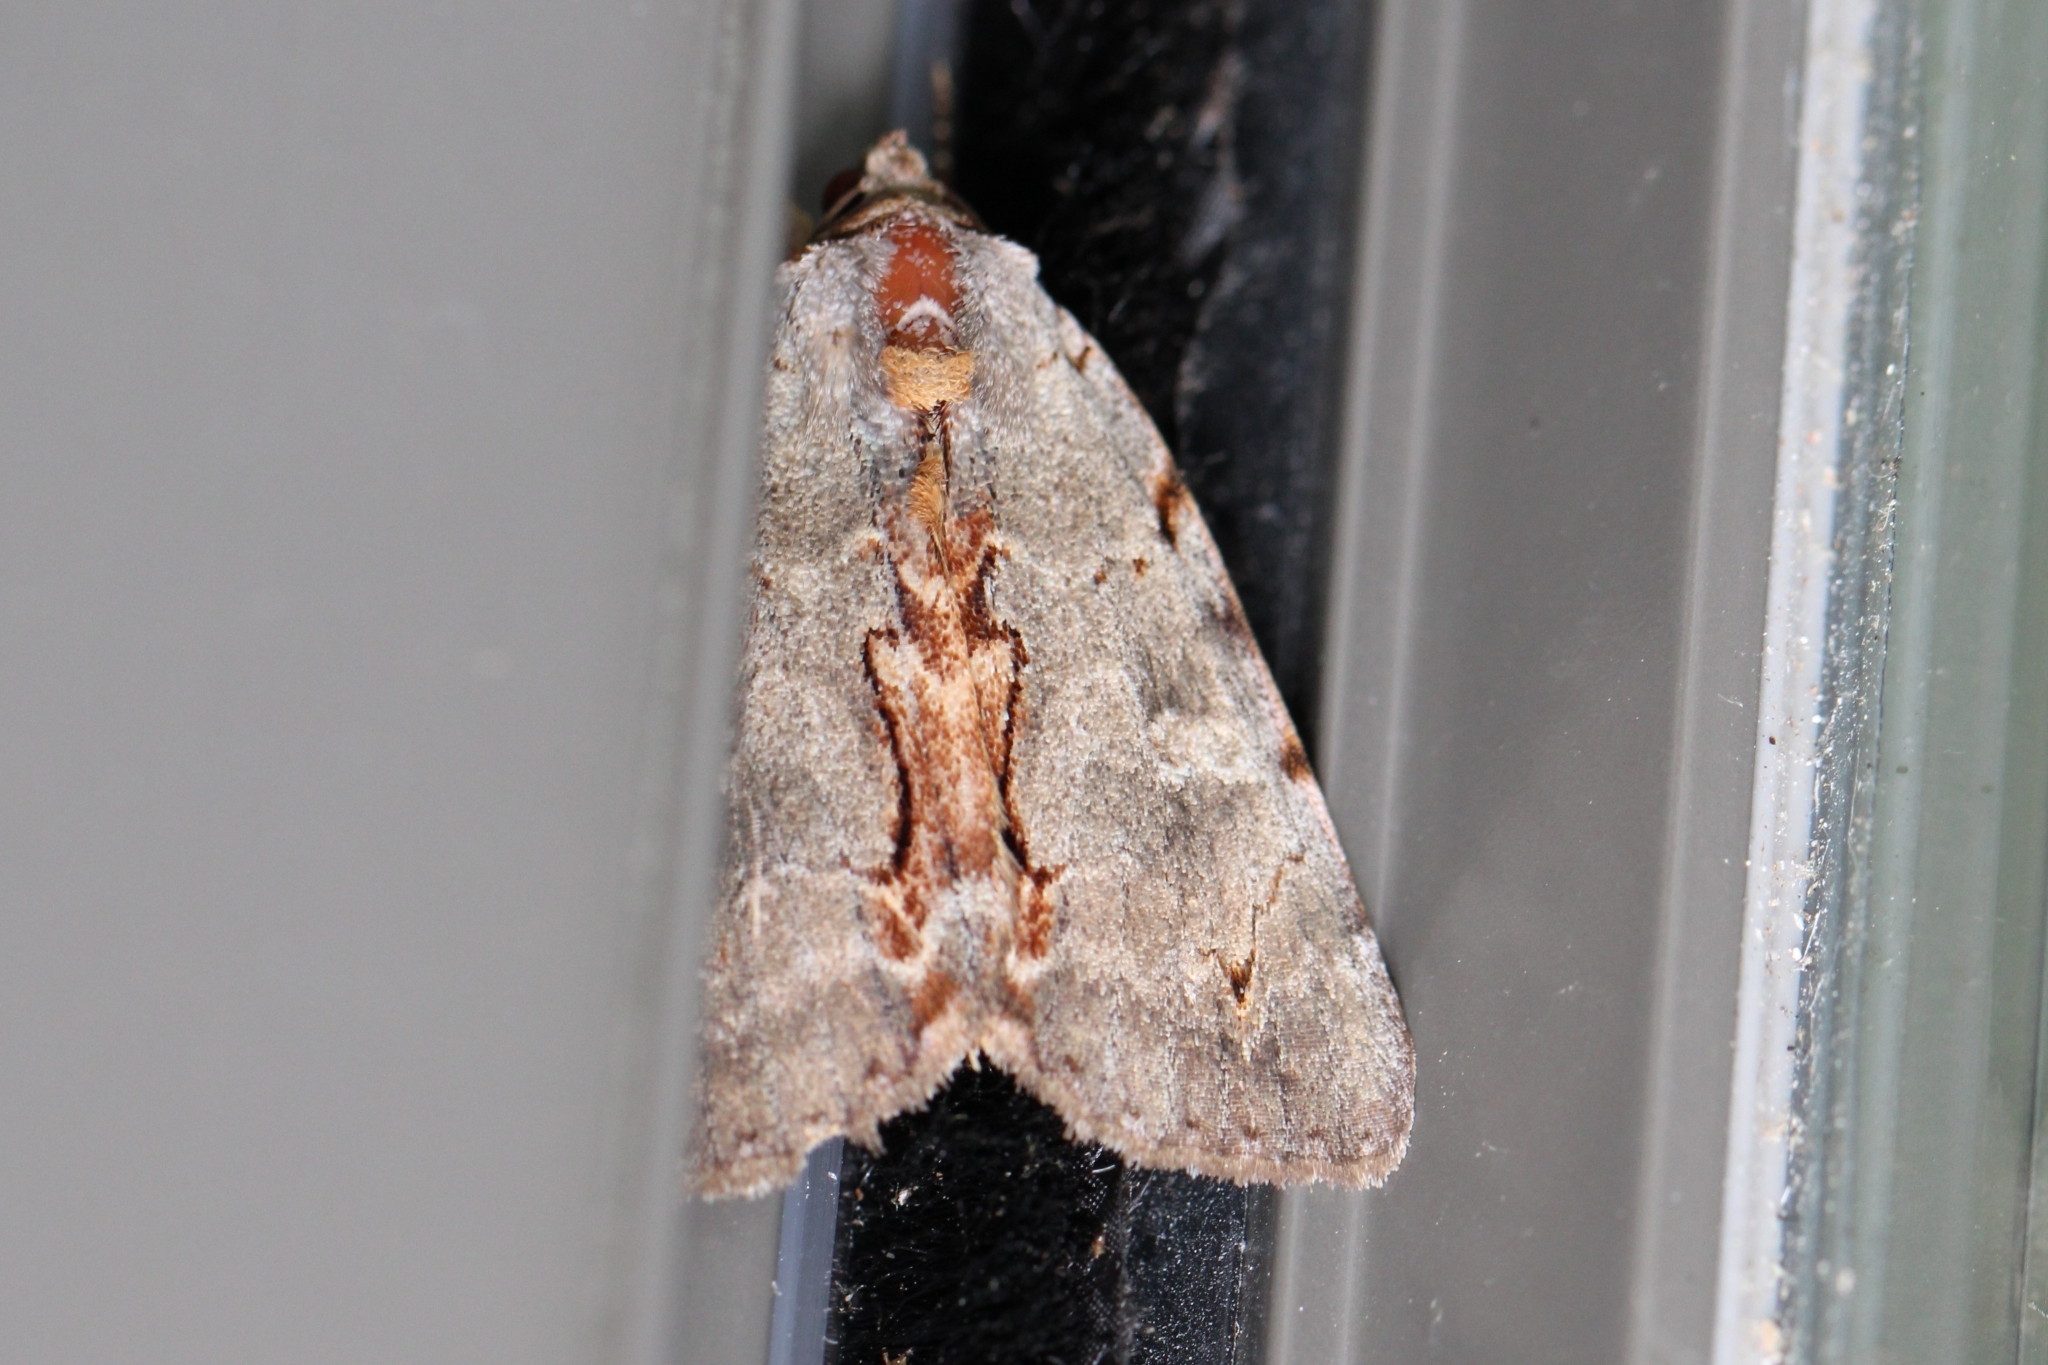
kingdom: Animalia
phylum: Arthropoda
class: Insecta
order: Lepidoptera
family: Erebidae
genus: Catocala
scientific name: Catocala grynea
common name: Woody underwing
